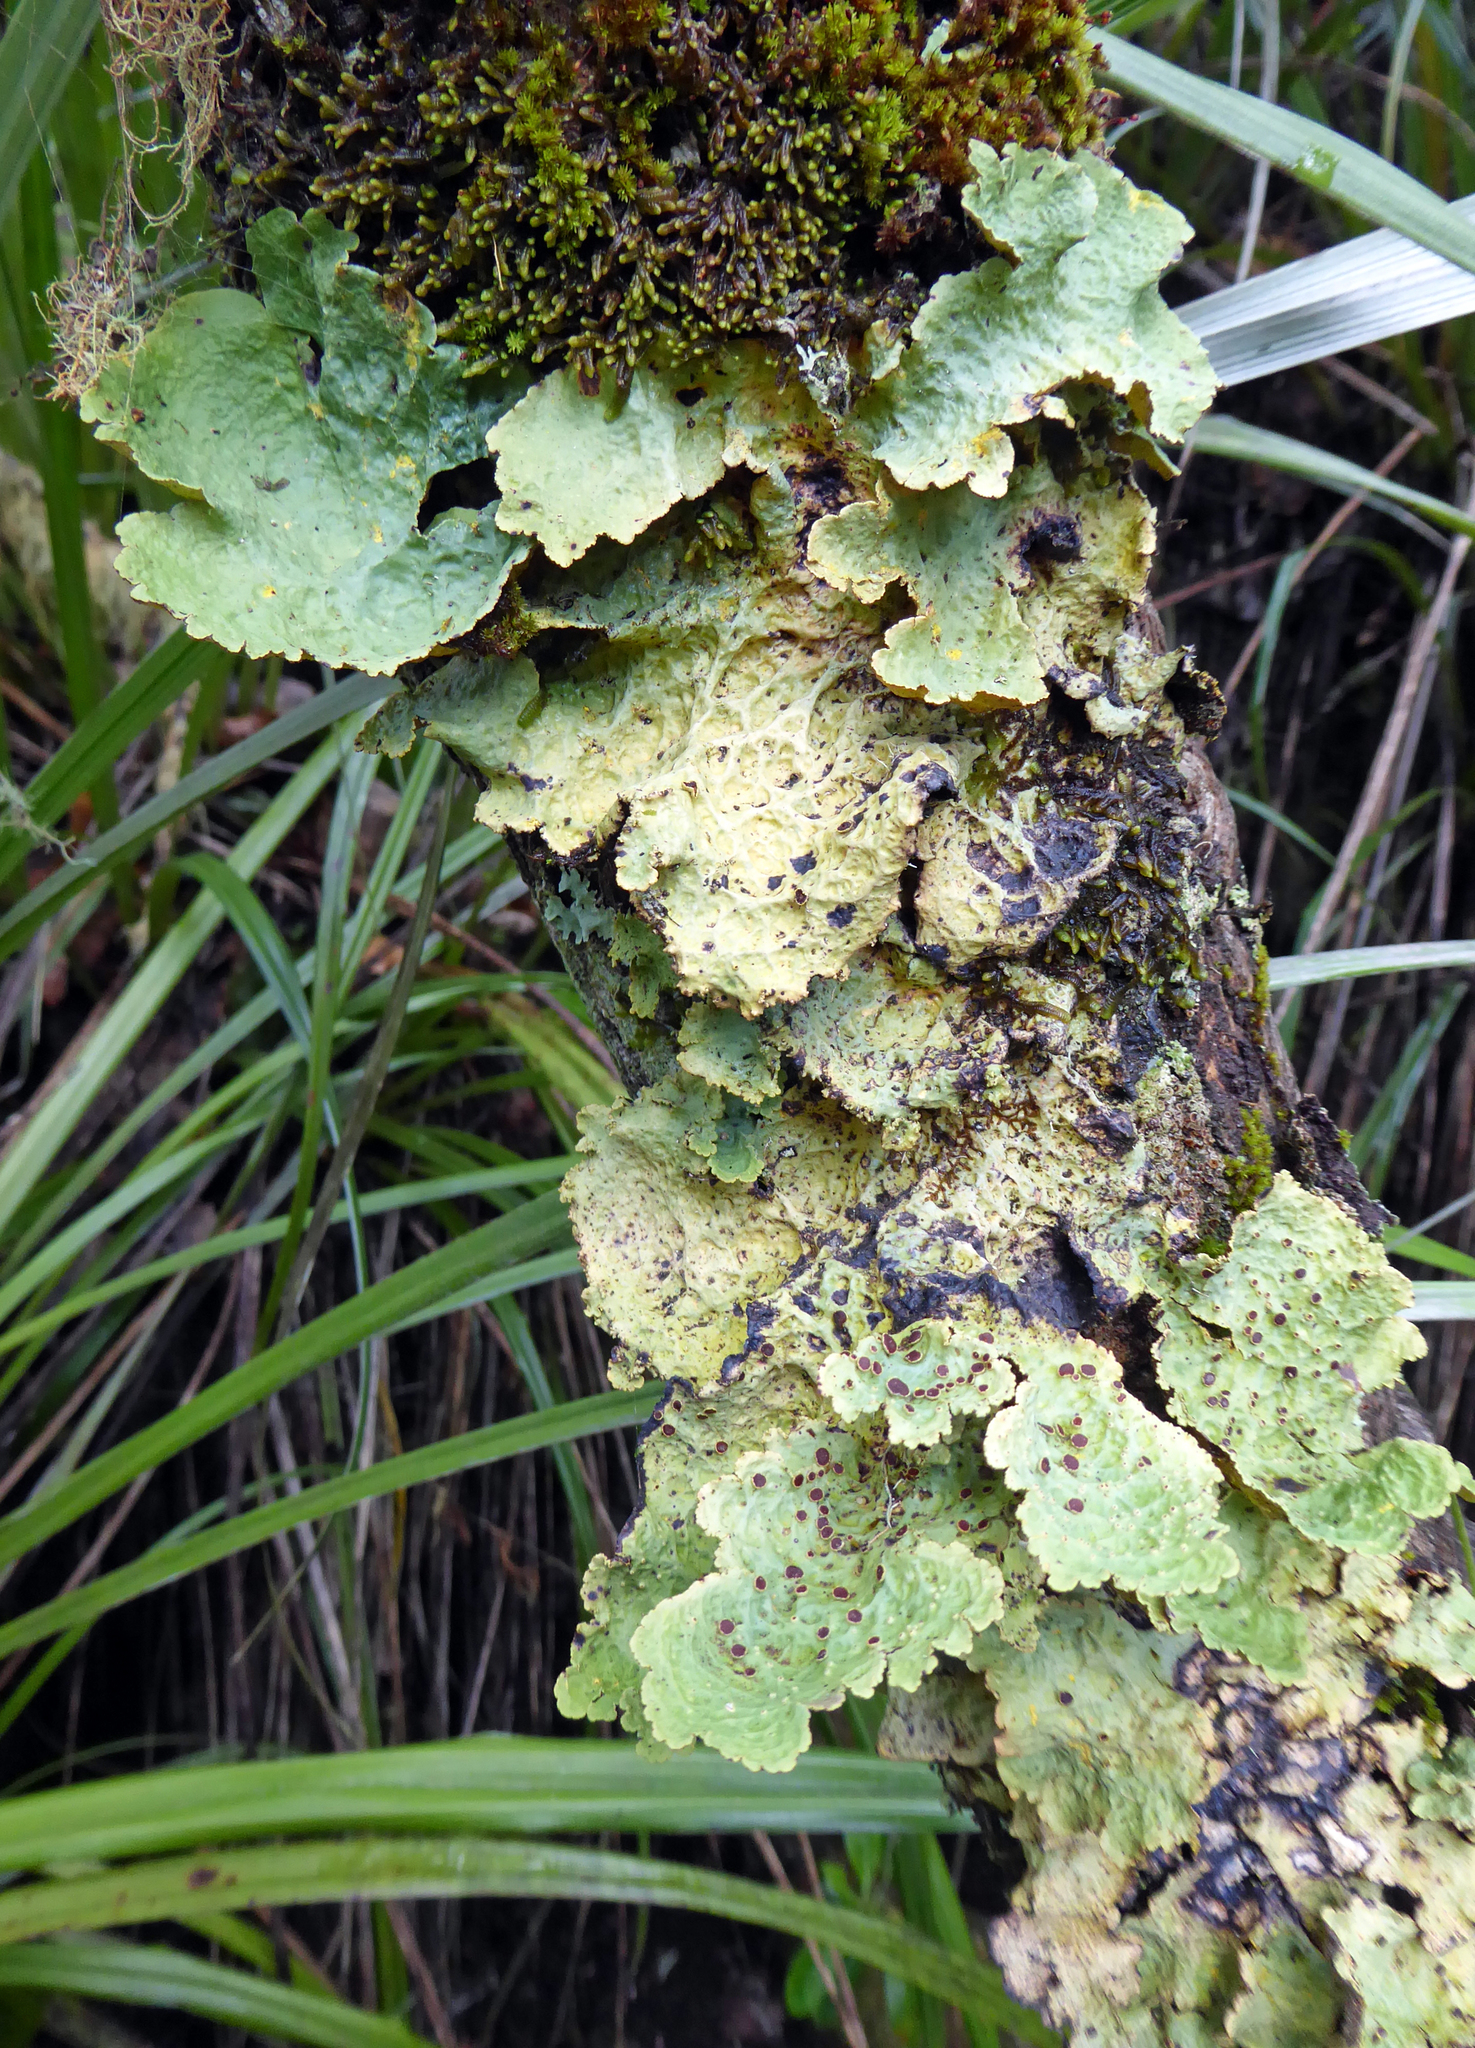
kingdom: Fungi
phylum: Ascomycota
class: Lecanoromycetes
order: Peltigerales
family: Lobariaceae
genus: Yarrumia
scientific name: Yarrumia coronata
